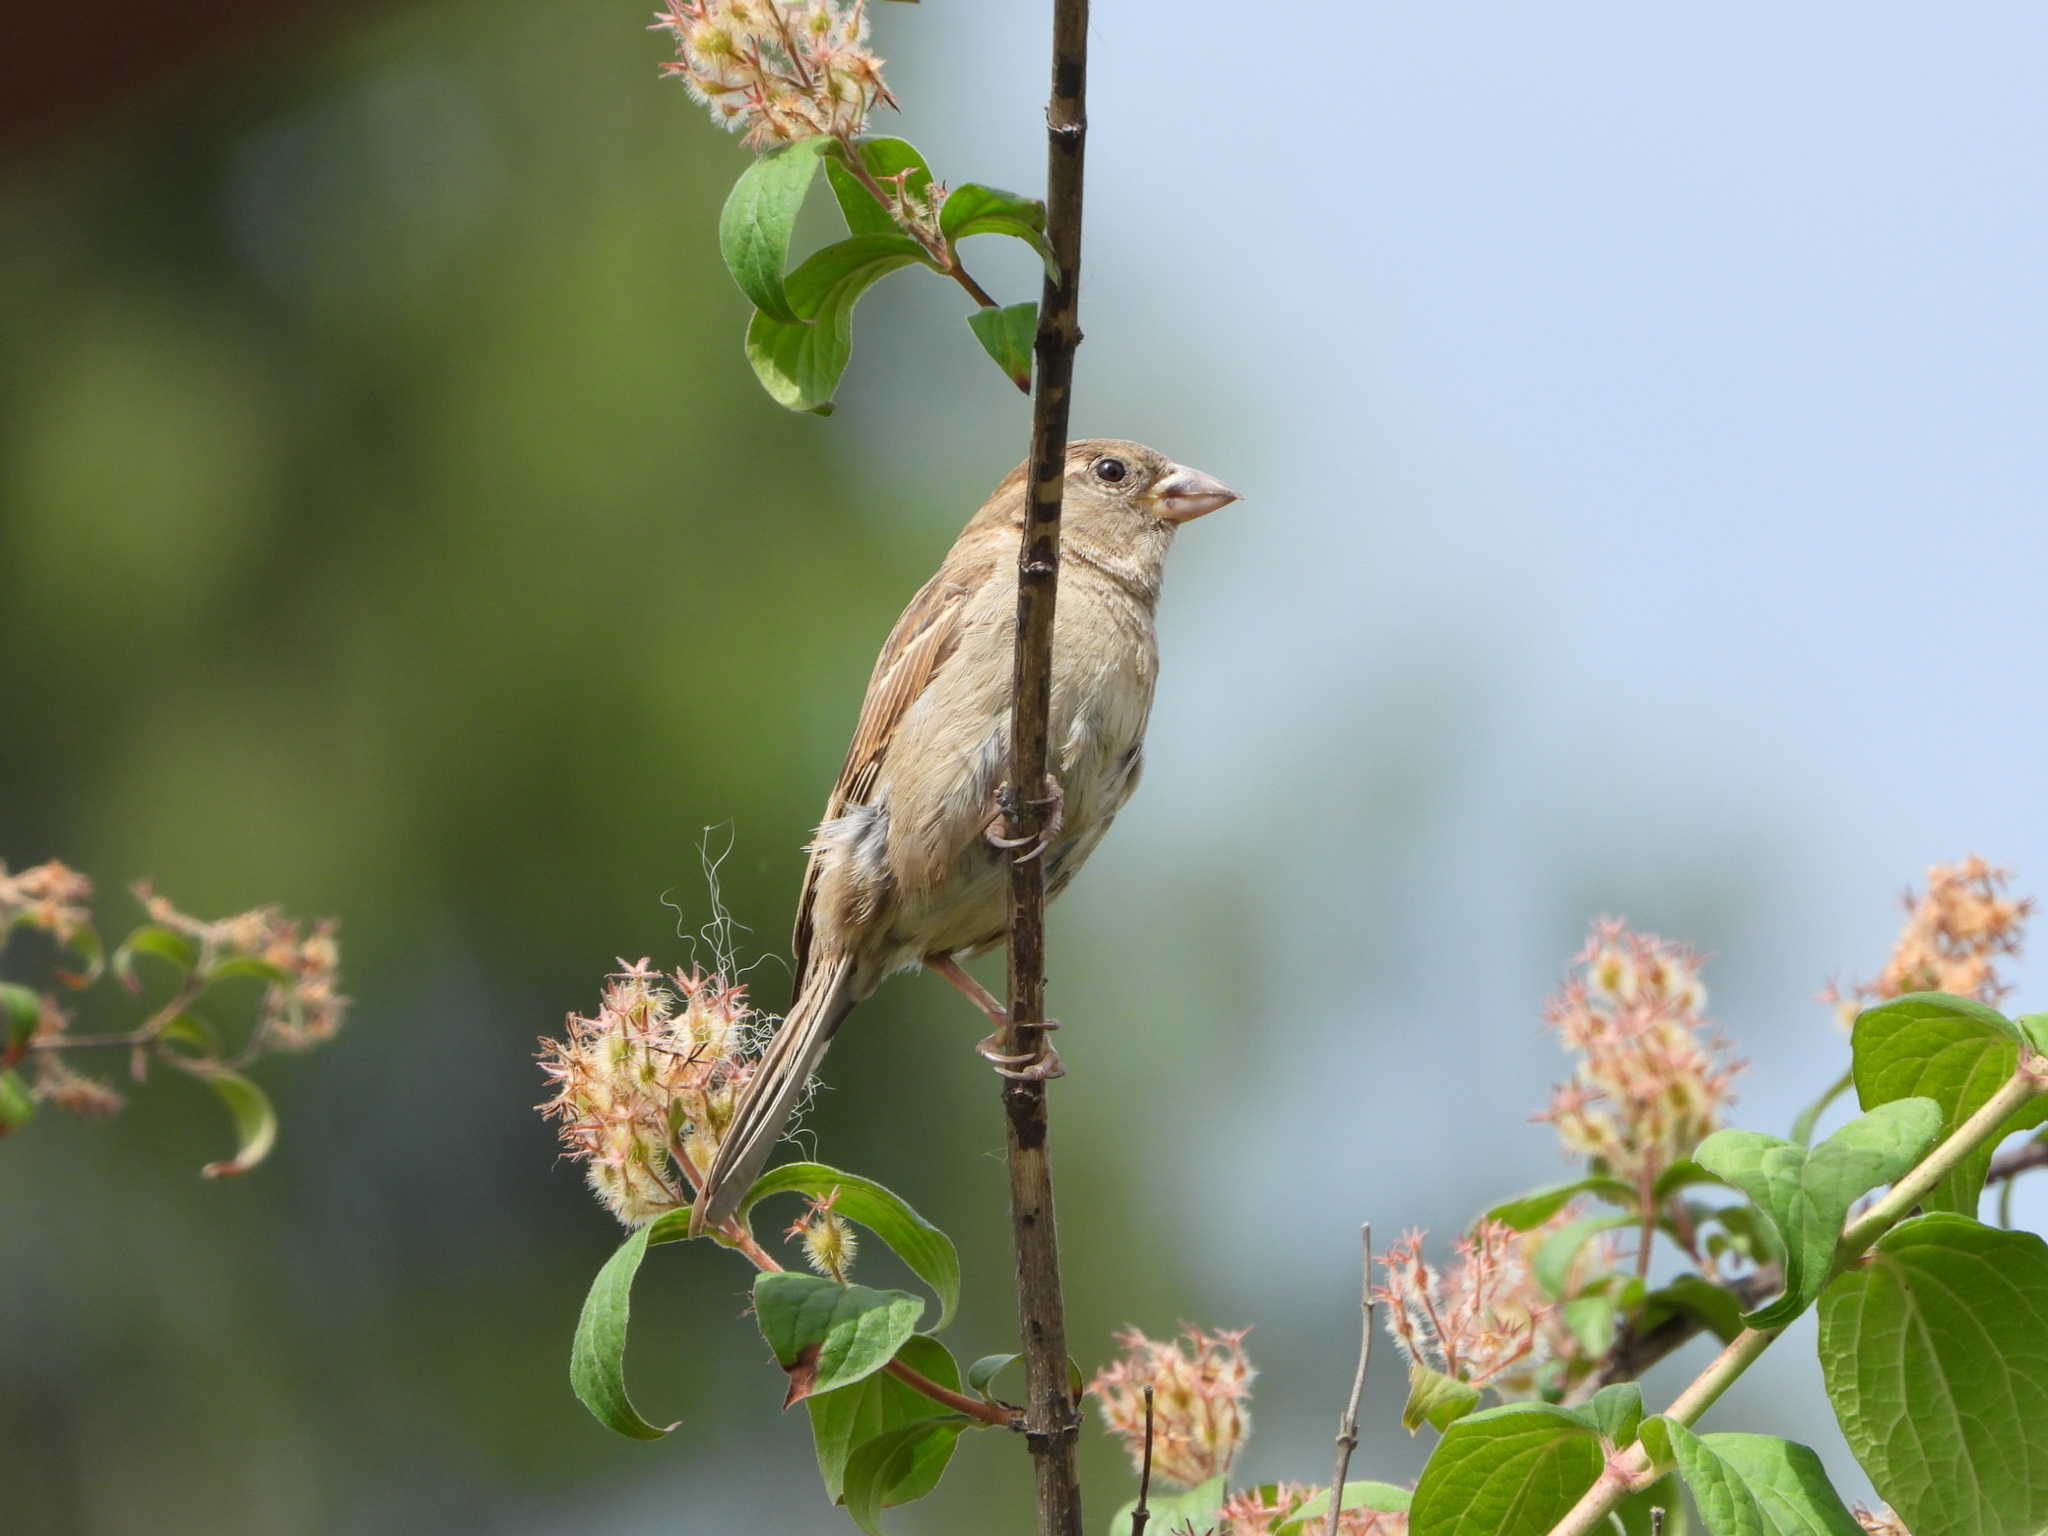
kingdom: Animalia
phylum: Chordata
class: Aves
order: Passeriformes
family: Passeridae
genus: Passer
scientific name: Passer domesticus
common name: House sparrow
